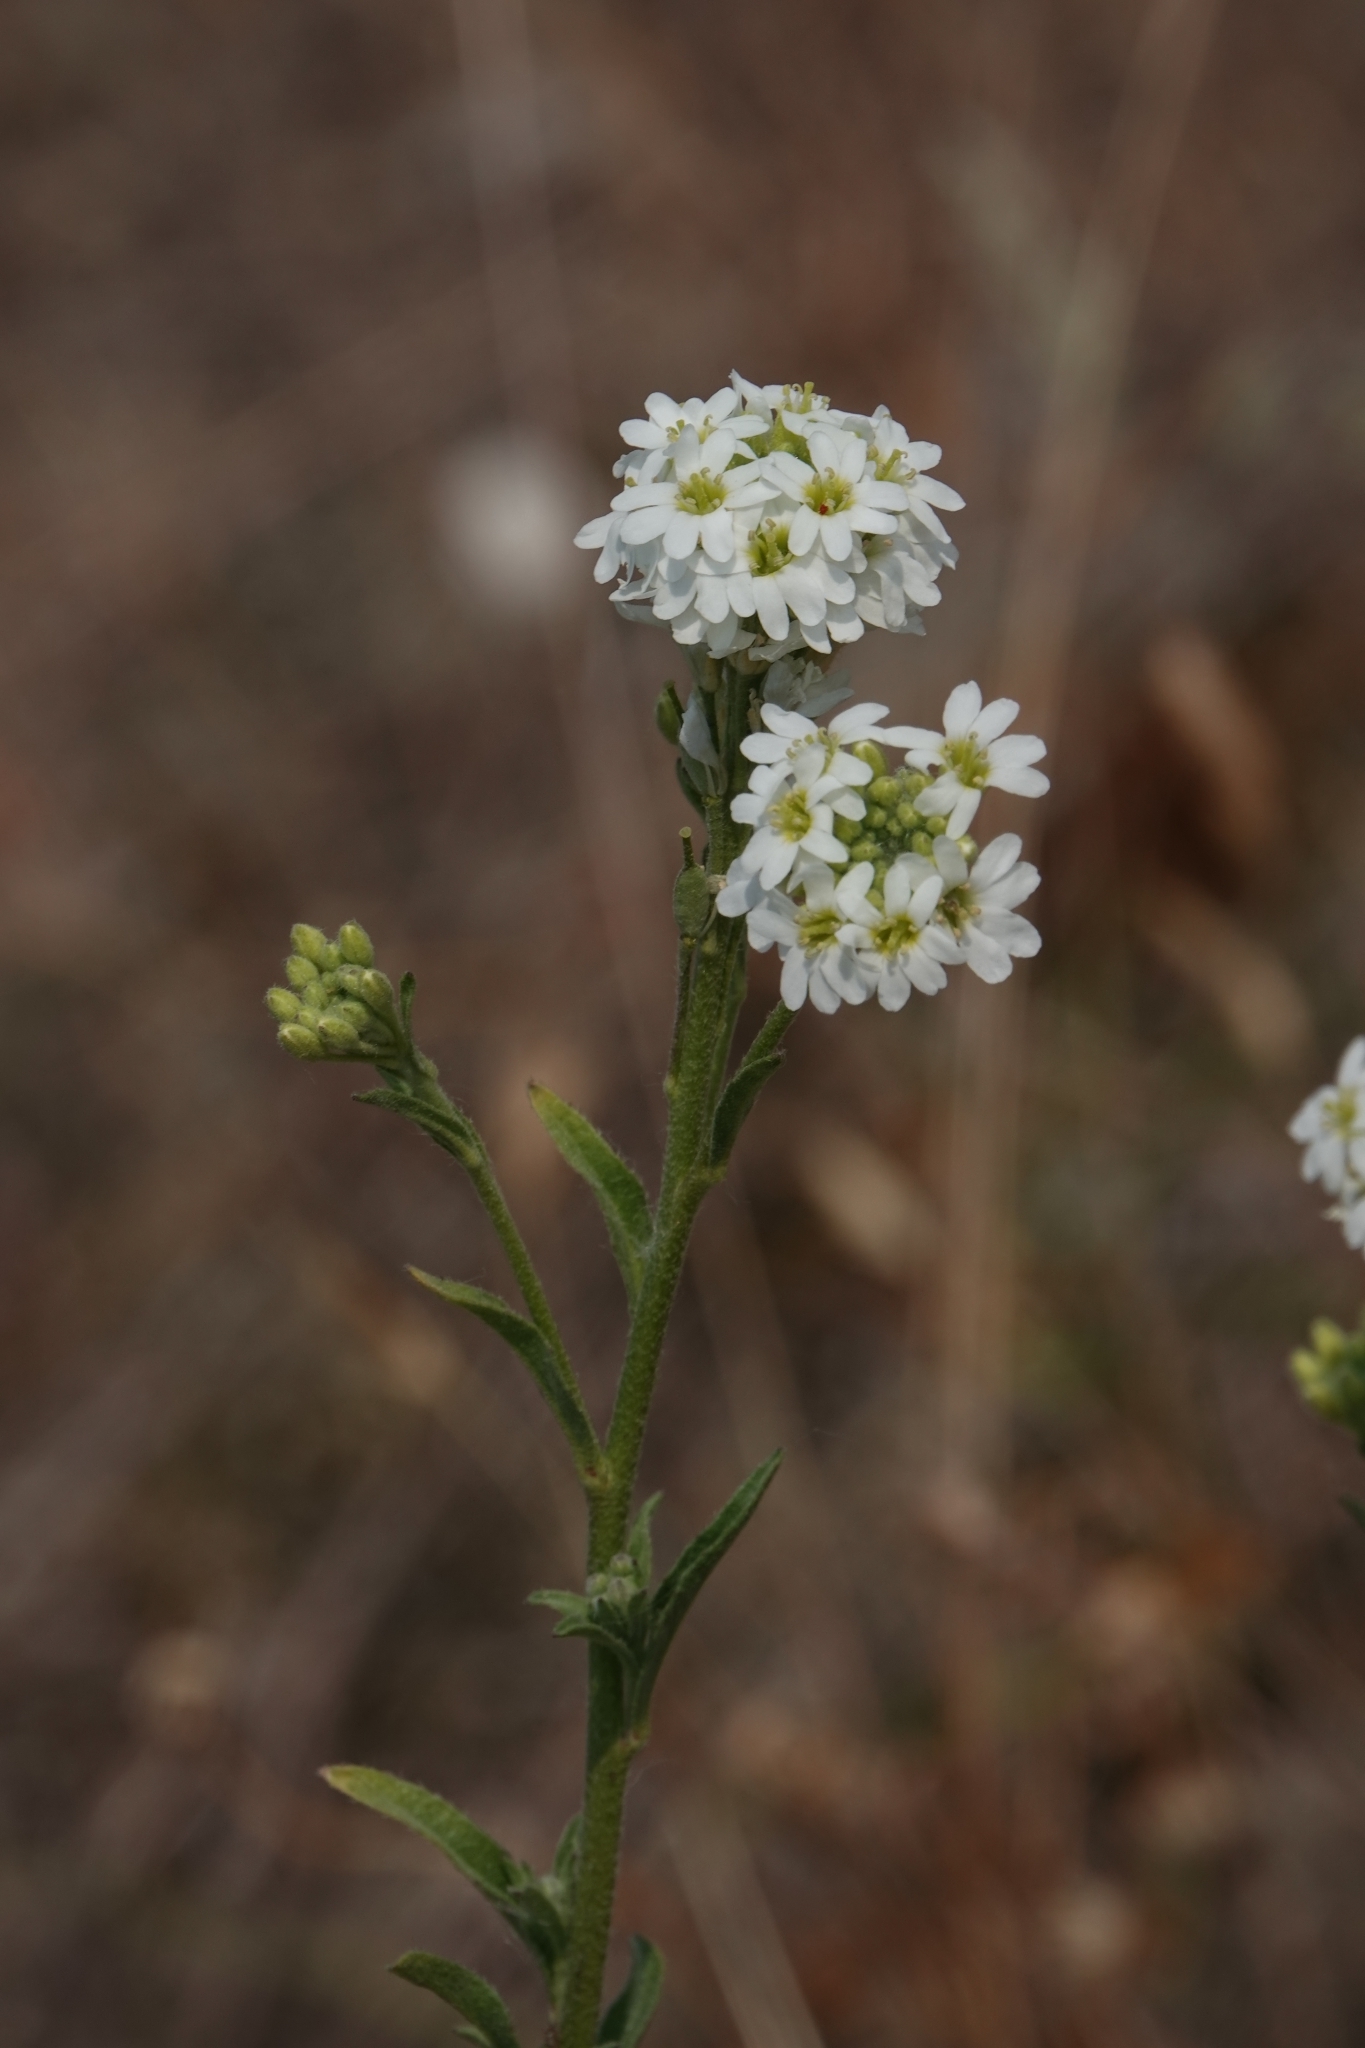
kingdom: Plantae
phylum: Tracheophyta
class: Magnoliopsida
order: Brassicales
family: Brassicaceae
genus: Berteroa
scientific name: Berteroa incana
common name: Hoary alison
